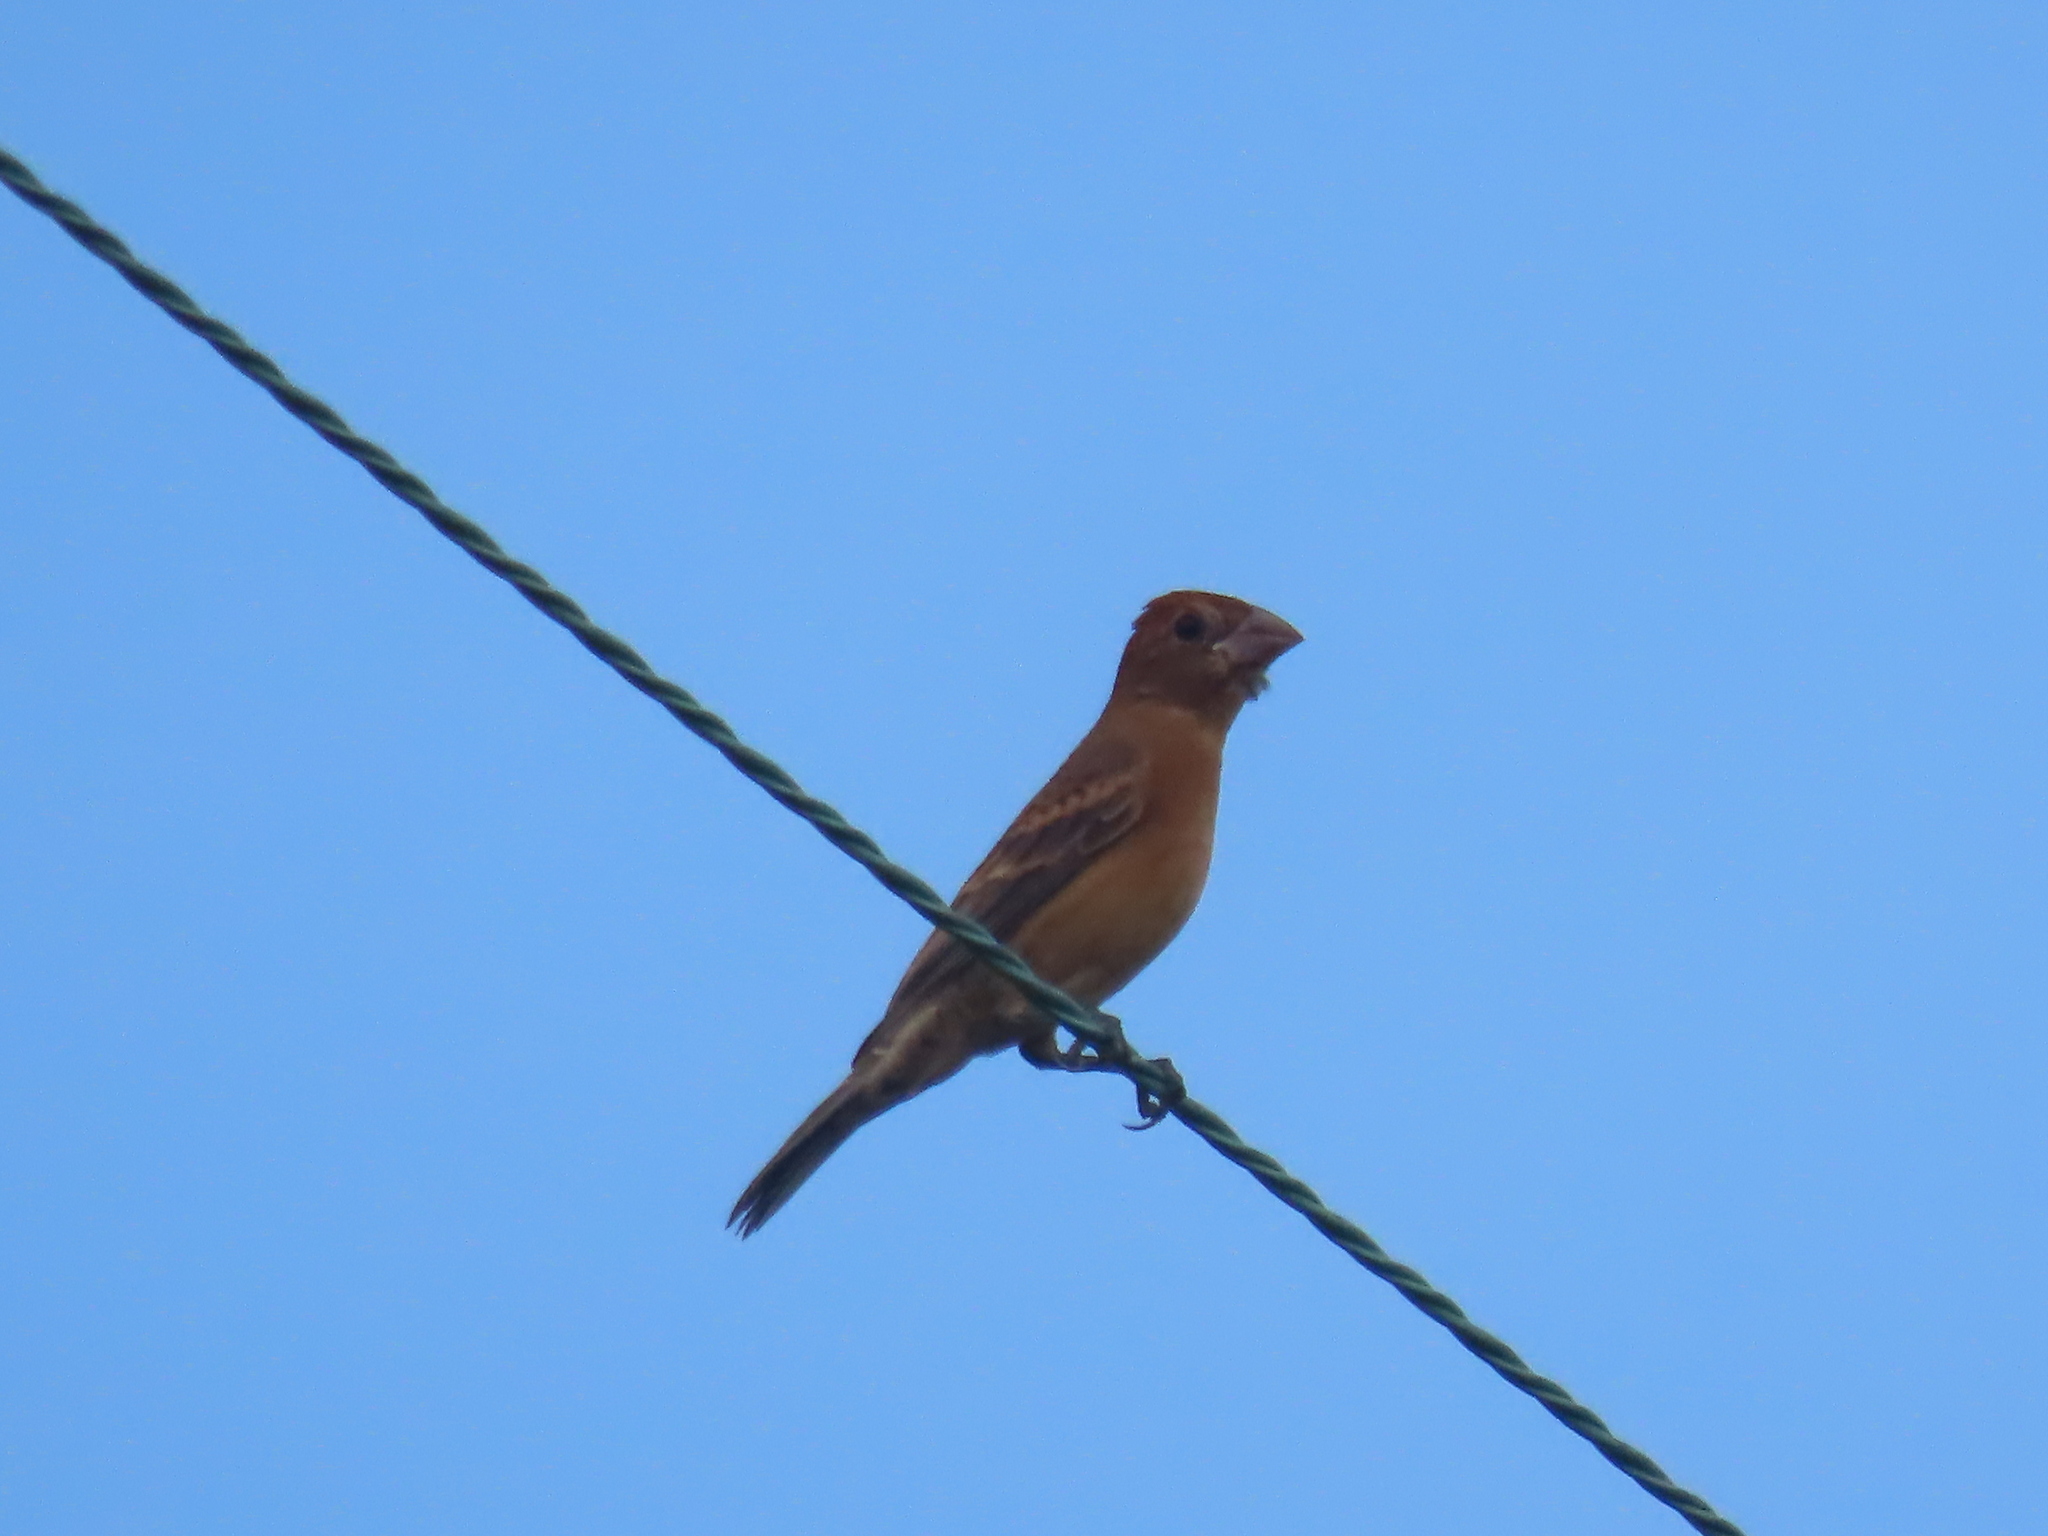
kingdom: Animalia
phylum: Chordata
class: Aves
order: Passeriformes
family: Cardinalidae
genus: Passerina
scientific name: Passerina caerulea
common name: Blue grosbeak
